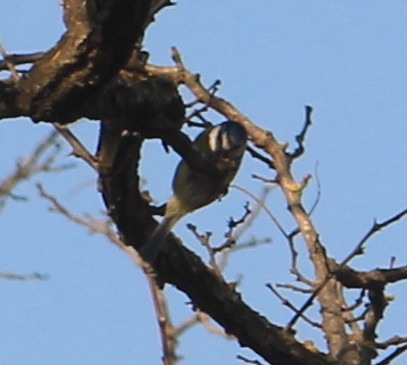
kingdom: Animalia
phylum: Chordata
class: Aves
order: Passeriformes
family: Paridae
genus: Cyanistes
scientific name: Cyanistes caeruleus
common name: Eurasian blue tit
